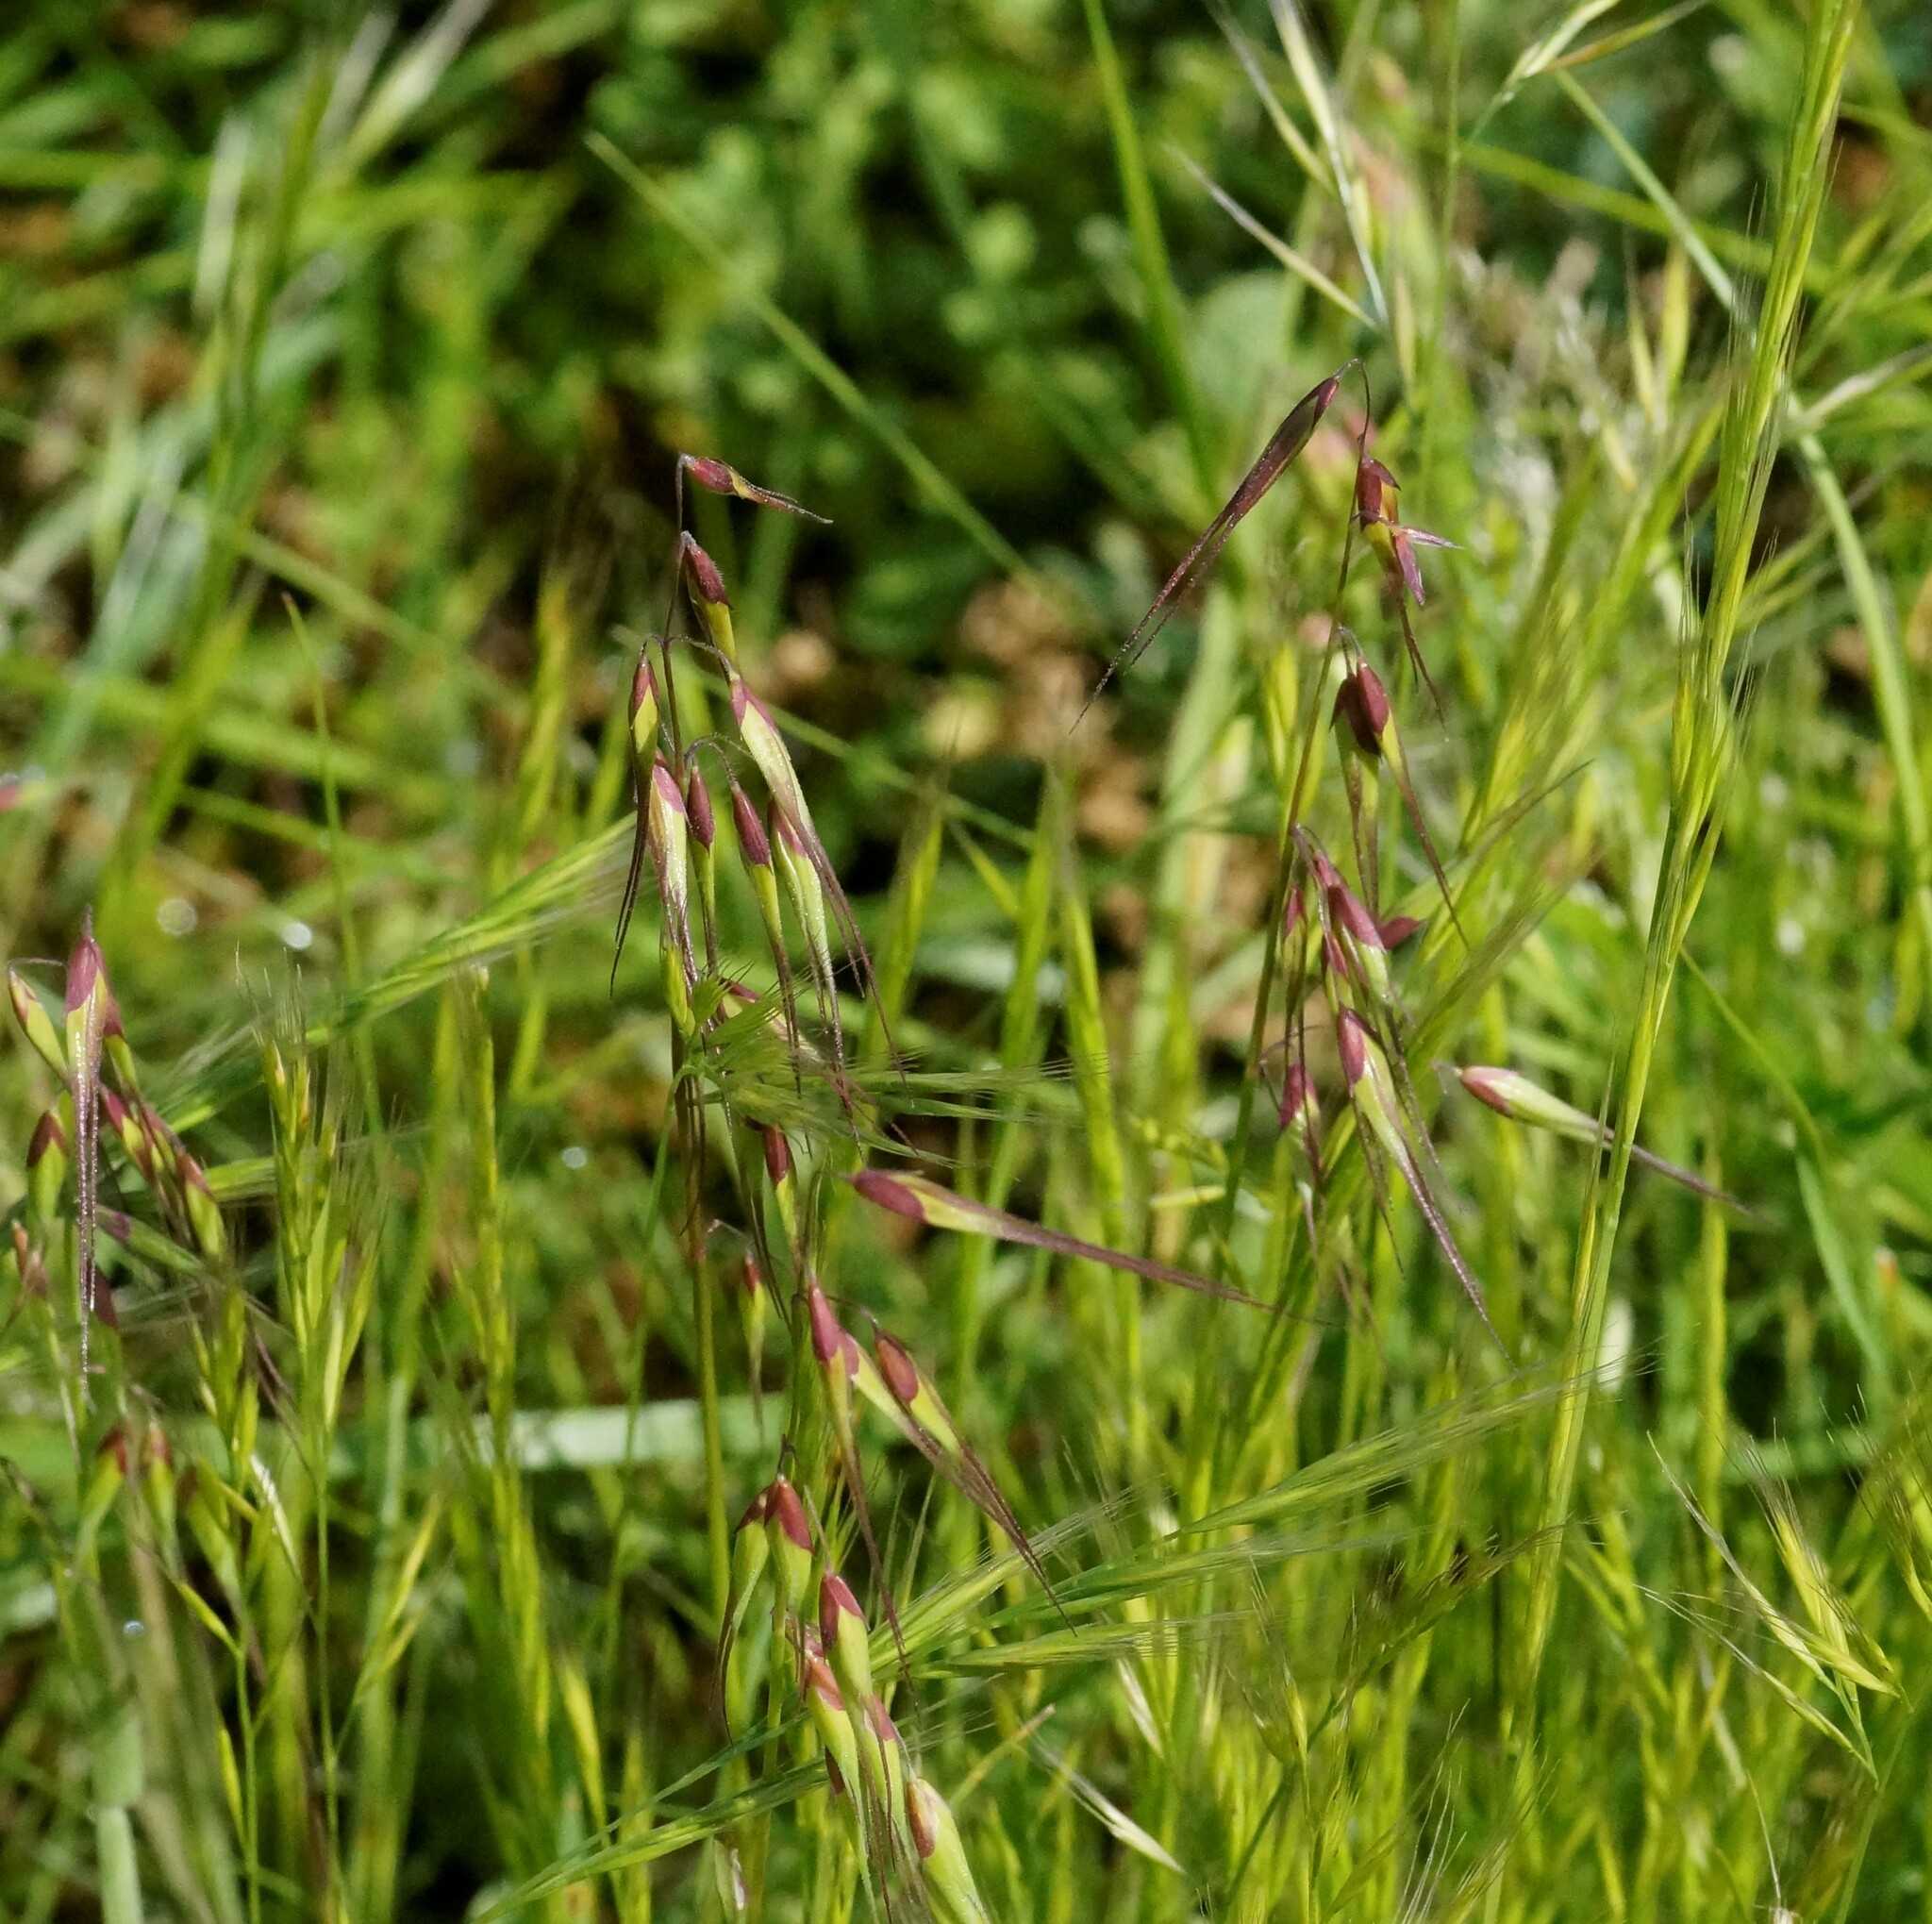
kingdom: Plantae
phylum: Tracheophyta
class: Liliopsida
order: Poales
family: Poaceae
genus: Ehrharta
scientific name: Ehrharta longiflora
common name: Longflowered veldtgrass
